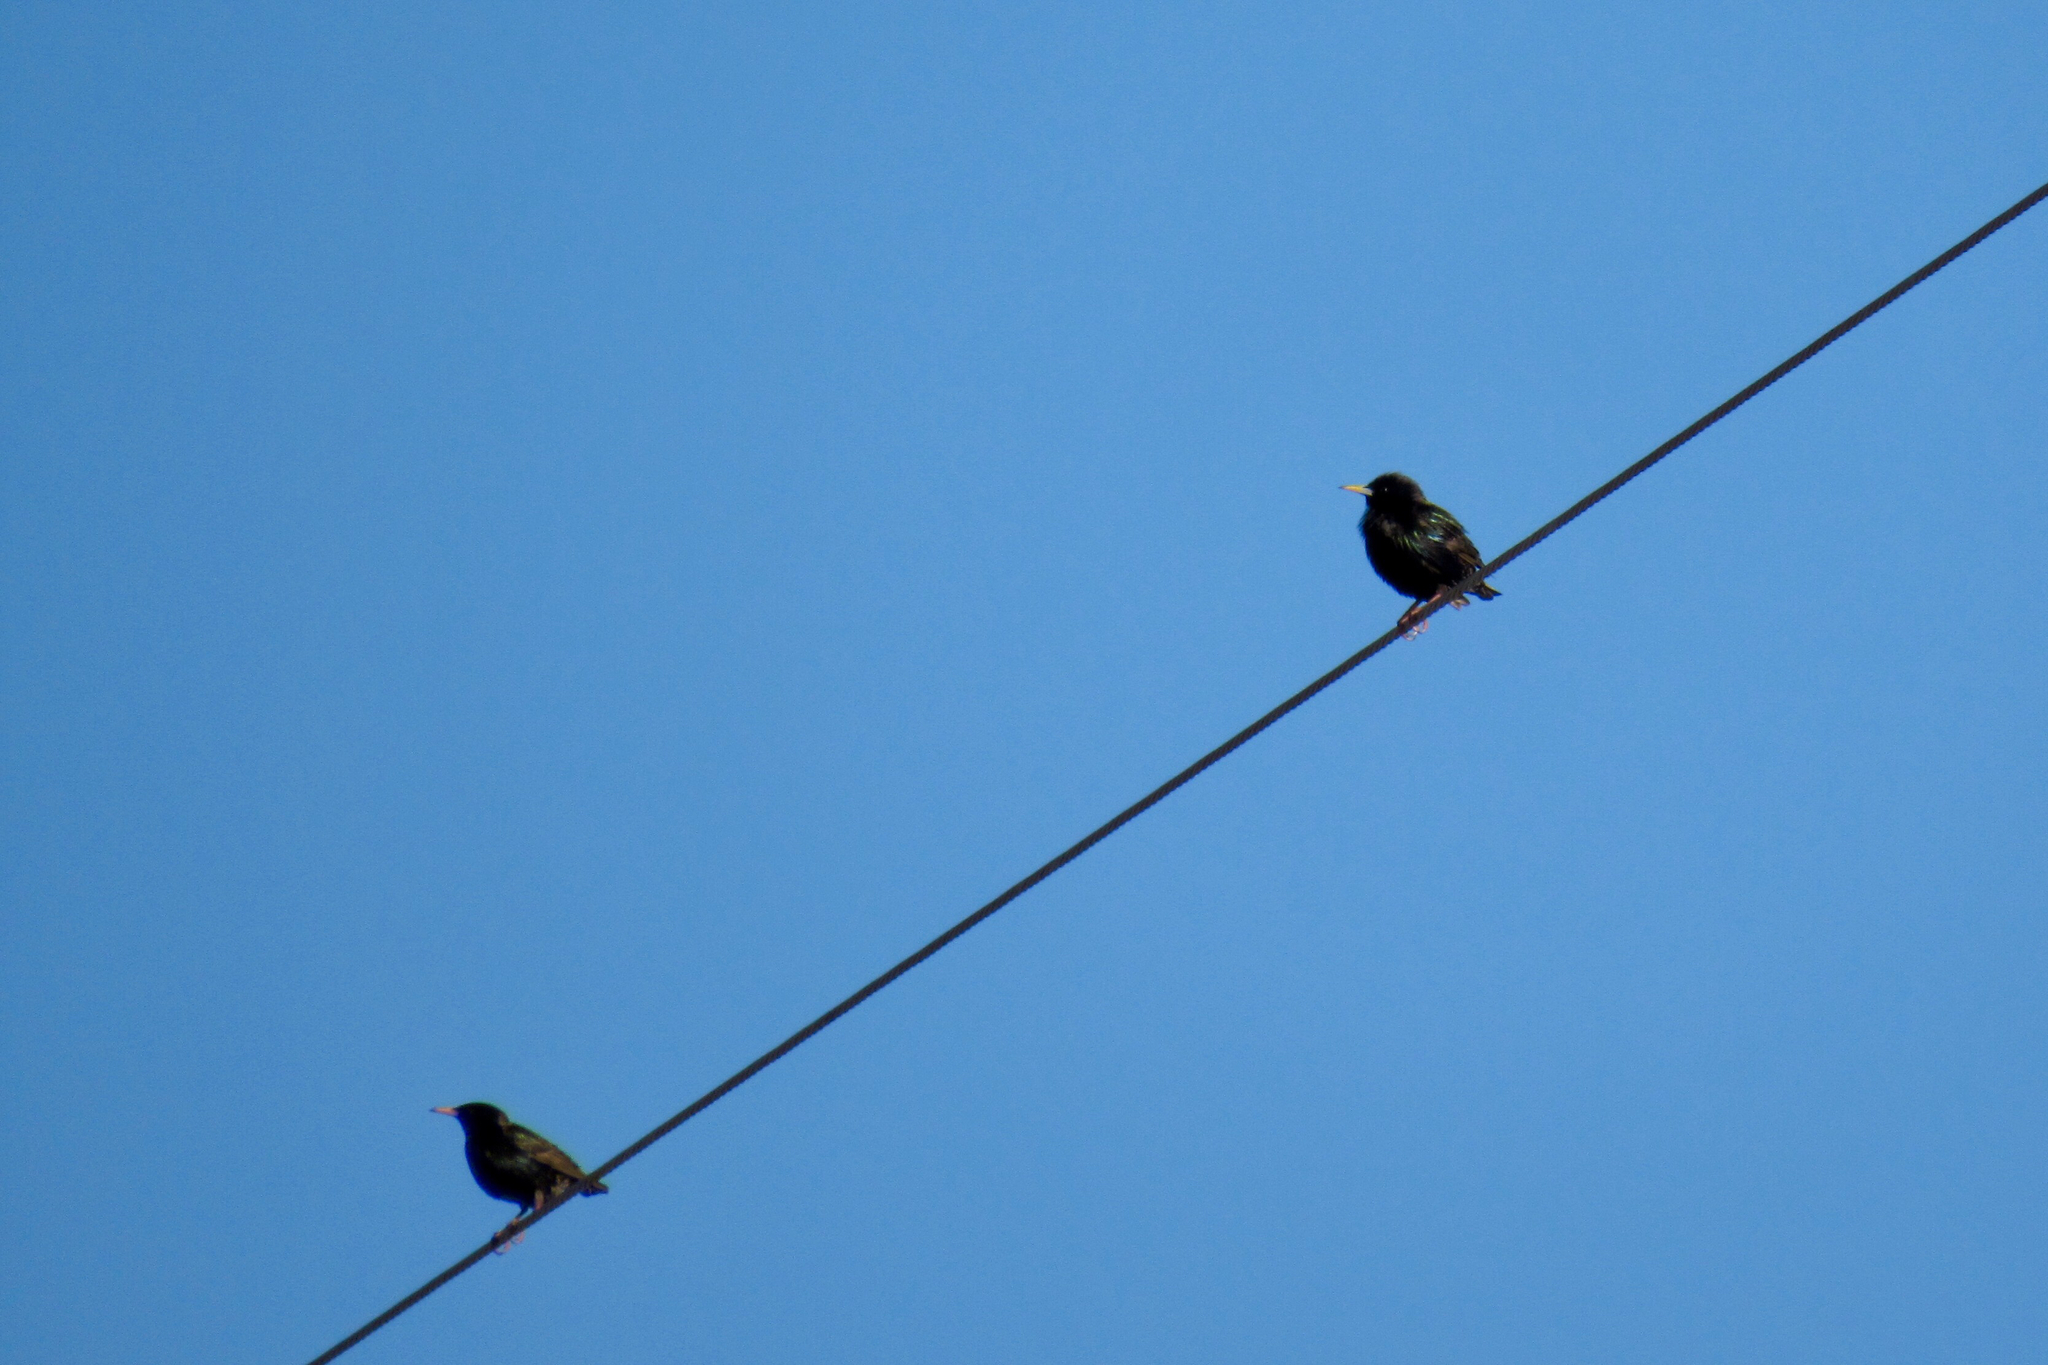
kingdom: Animalia
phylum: Chordata
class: Aves
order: Passeriformes
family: Sturnidae
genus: Sturnus
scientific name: Sturnus vulgaris
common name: Common starling
